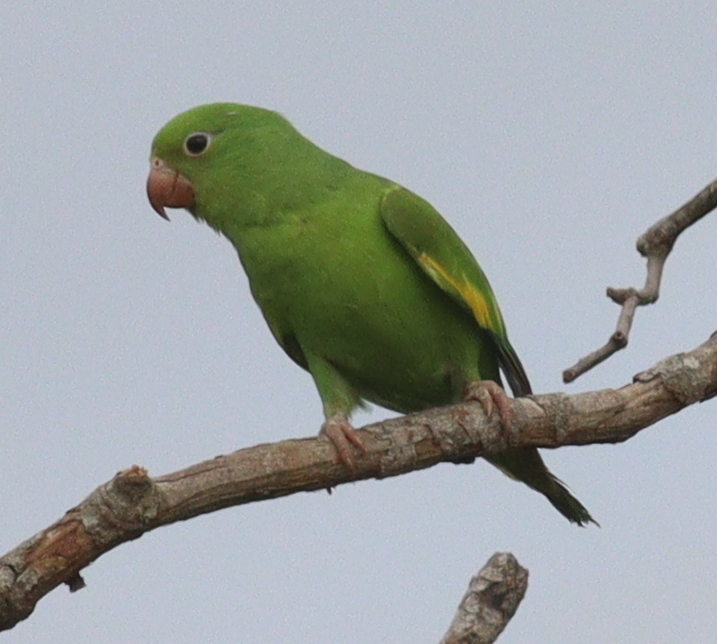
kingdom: Animalia
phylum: Chordata
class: Aves
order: Psittaciformes
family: Psittacidae
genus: Brotogeris
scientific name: Brotogeris chiriri
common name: Yellow-chevroned parakeet
